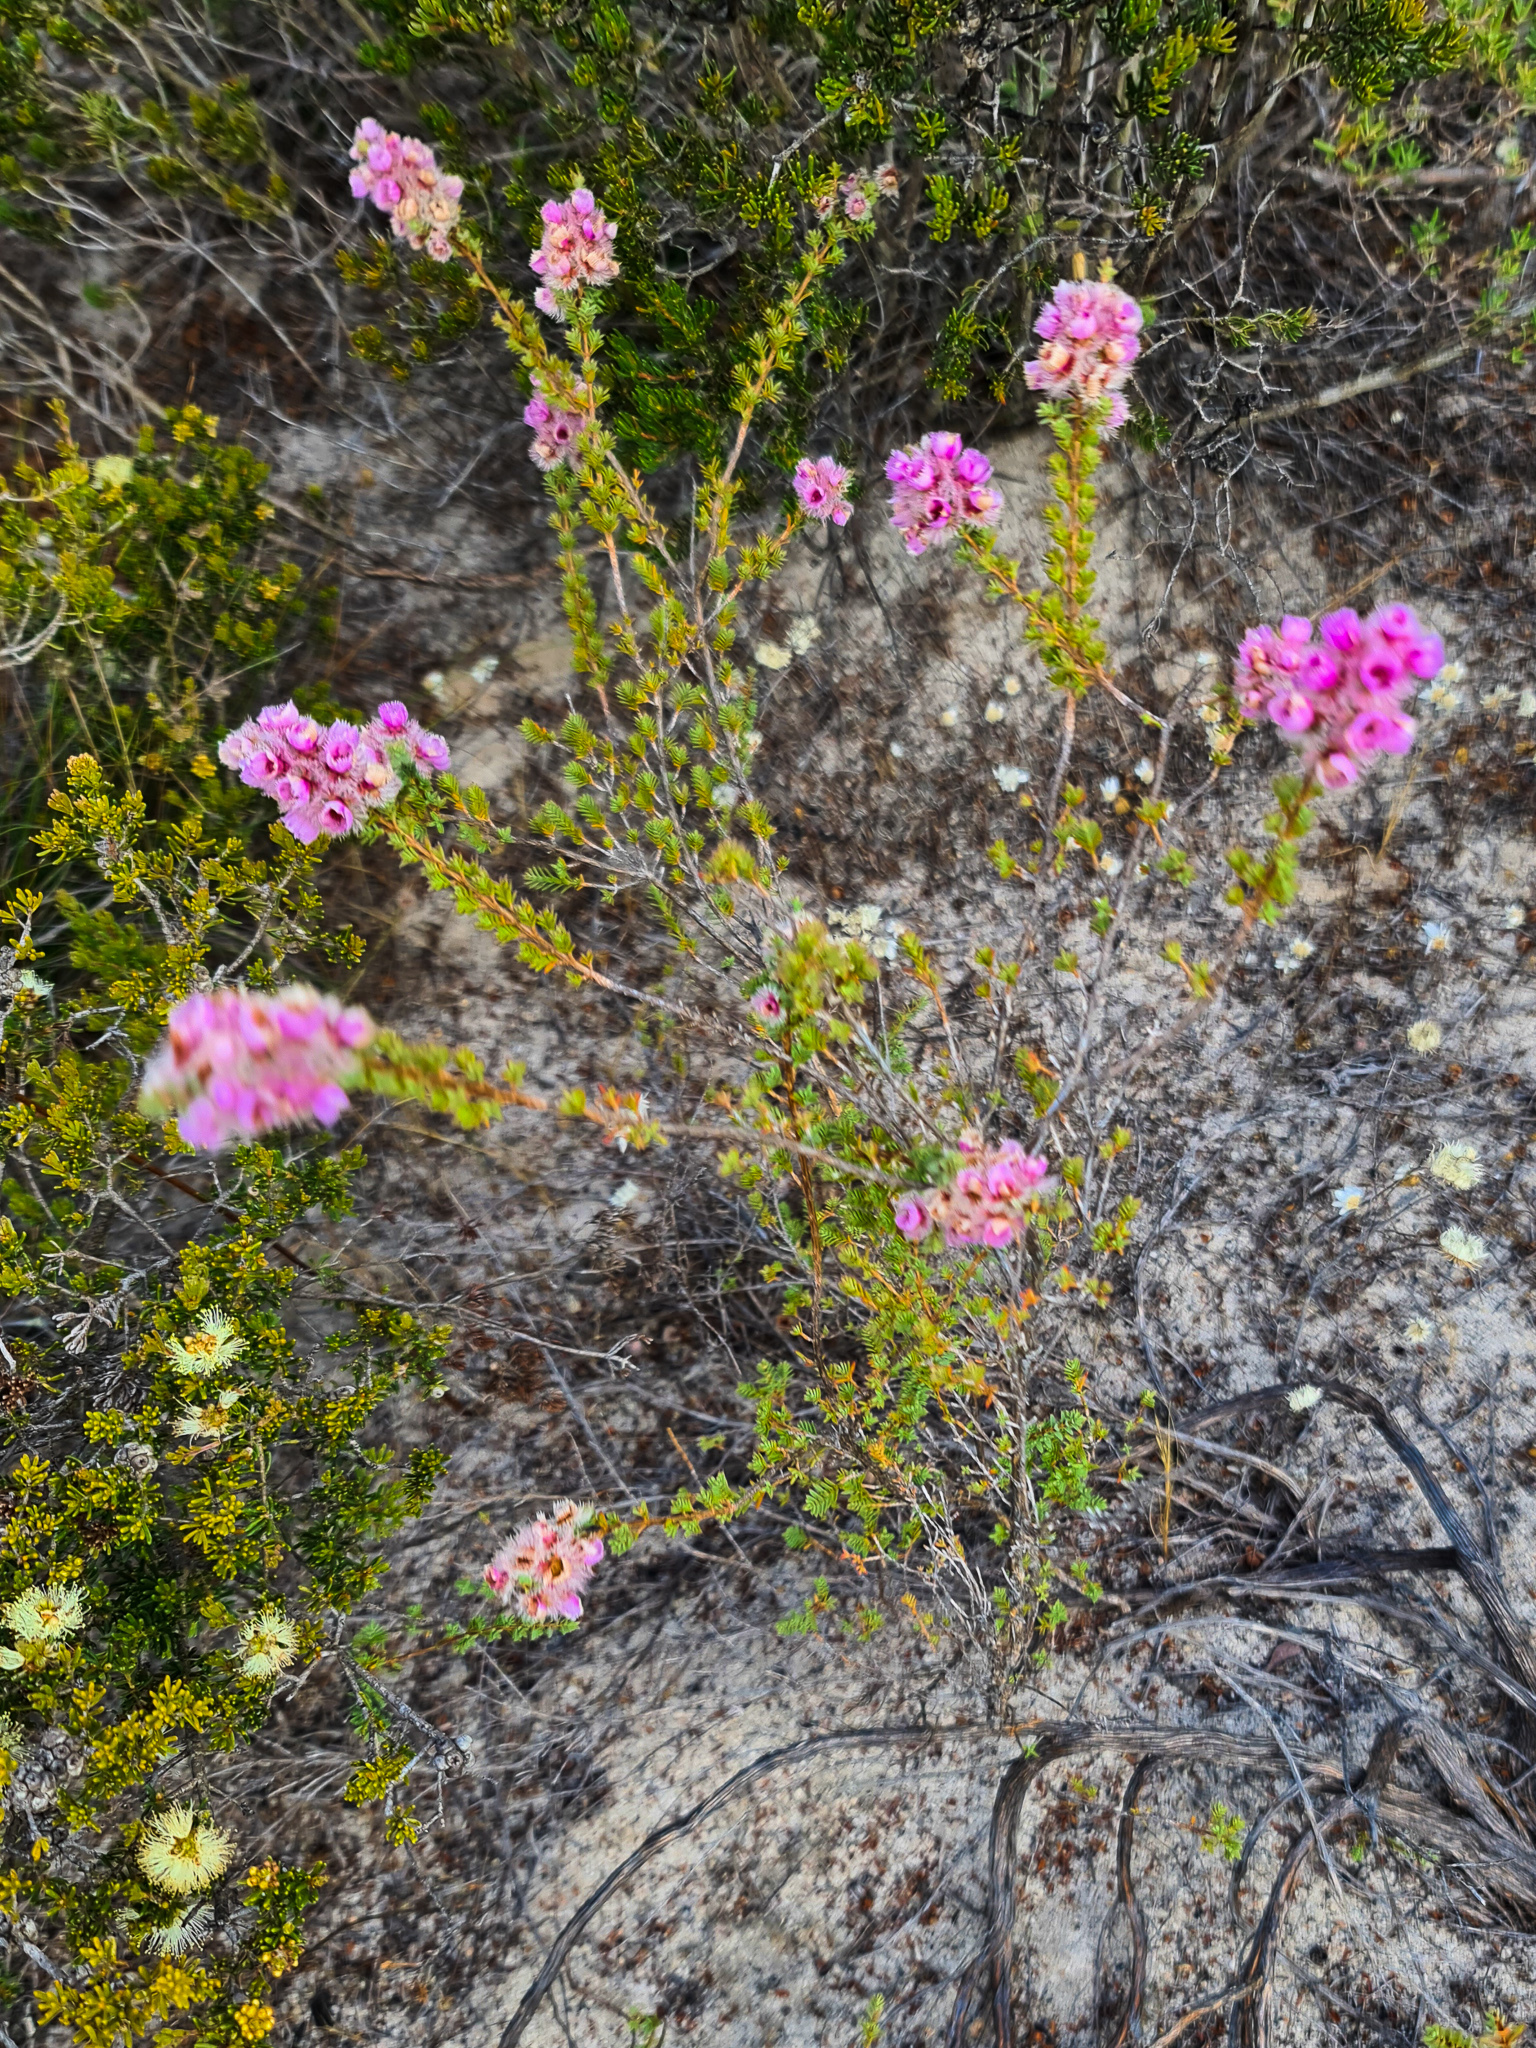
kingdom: Plantae
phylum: Tracheophyta
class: Magnoliopsida
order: Myrtales
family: Myrtaceae
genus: Verticordia
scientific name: Verticordia pennigera
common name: Native-tea
